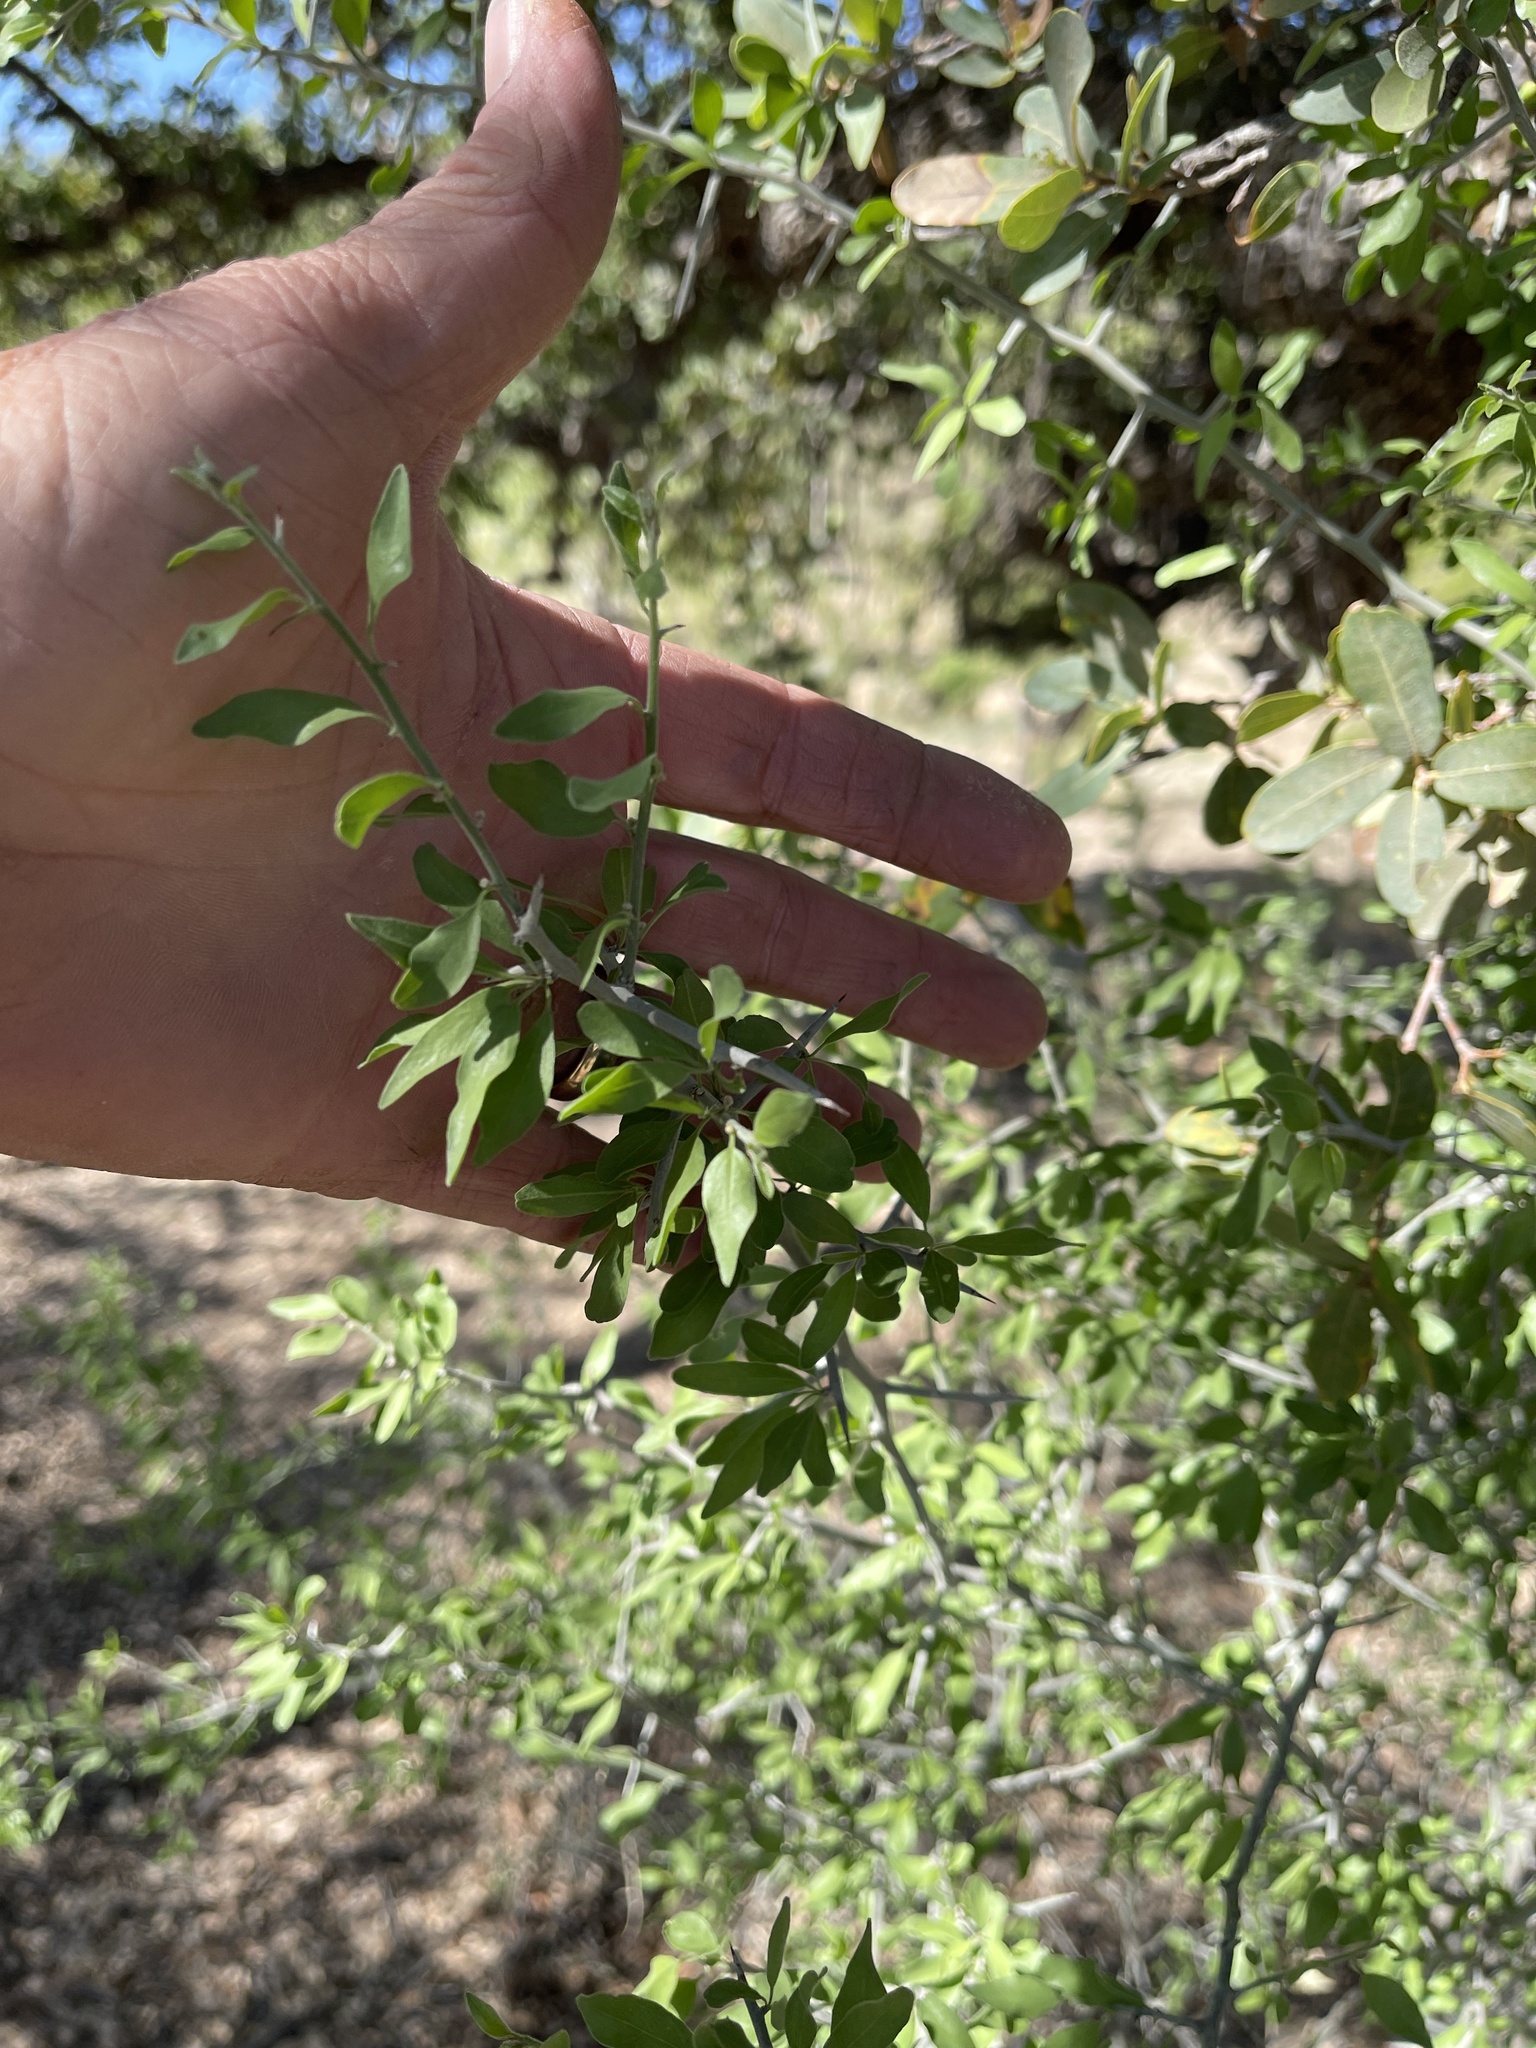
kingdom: Plantae
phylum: Tracheophyta
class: Magnoliopsida
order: Rosales
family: Rhamnaceae
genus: Sarcomphalus
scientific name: Sarcomphalus obtusifolius
